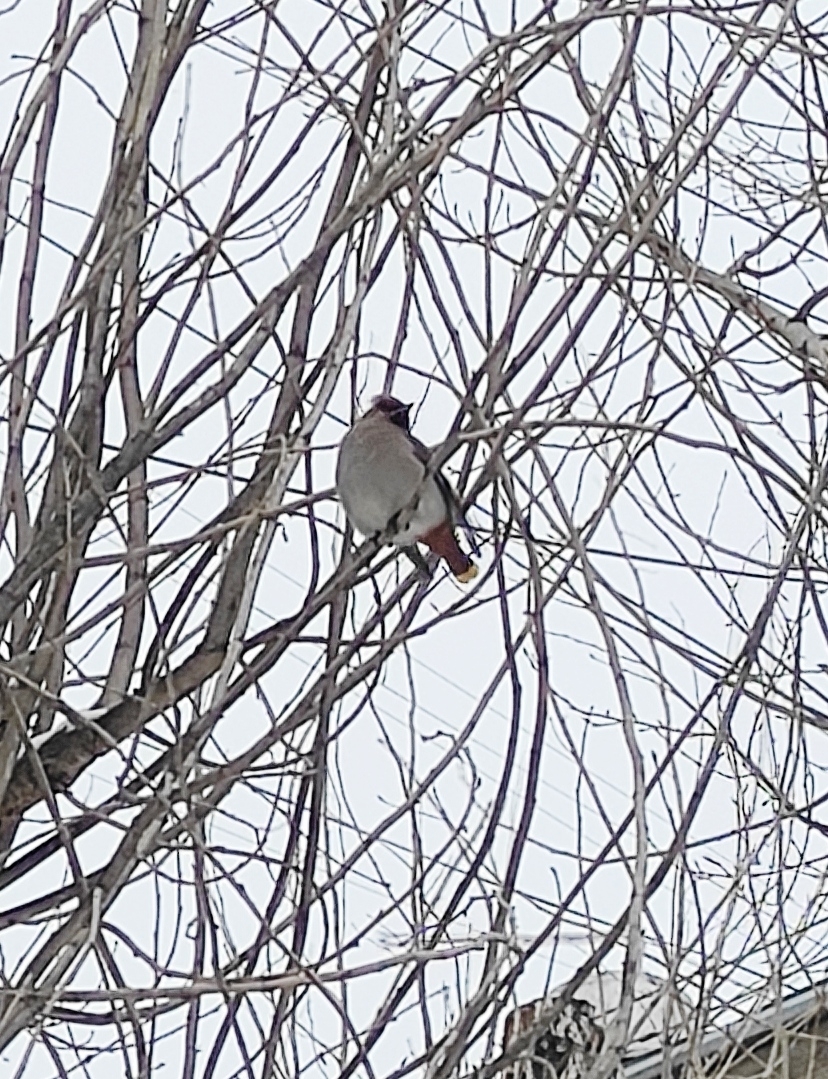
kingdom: Animalia
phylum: Chordata
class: Aves
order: Passeriformes
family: Bombycillidae
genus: Bombycilla
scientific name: Bombycilla garrulus
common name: Bohemian waxwing
